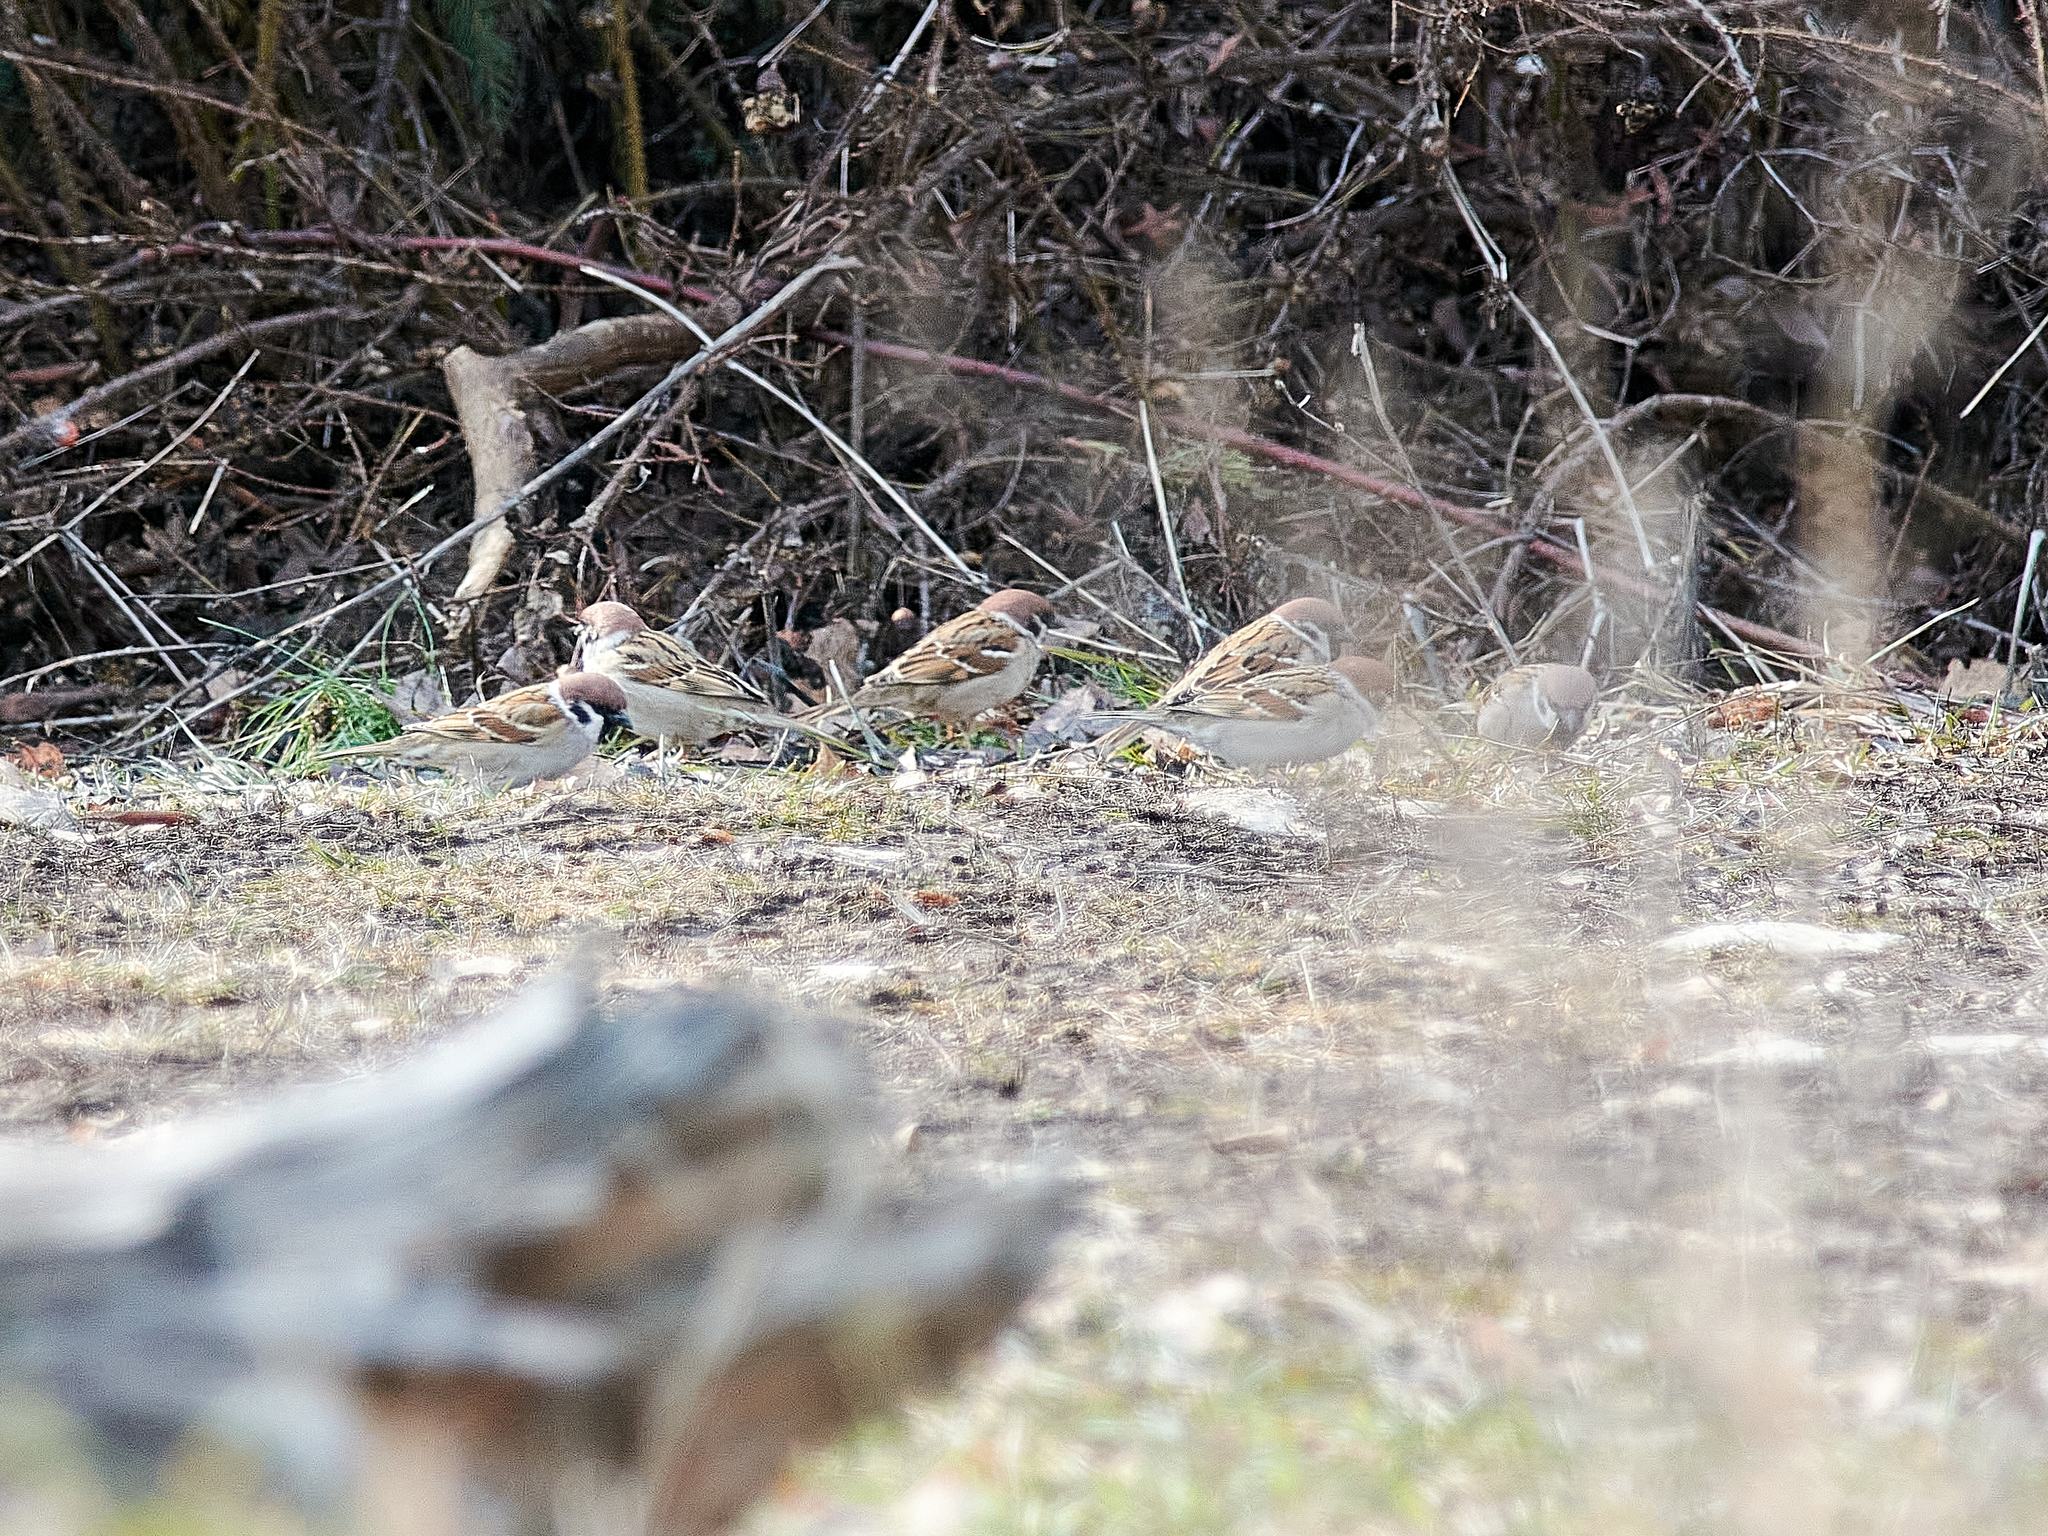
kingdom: Animalia
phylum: Chordata
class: Aves
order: Passeriformes
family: Passeridae
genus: Passer
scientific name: Passer montanus
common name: Eurasian tree sparrow
